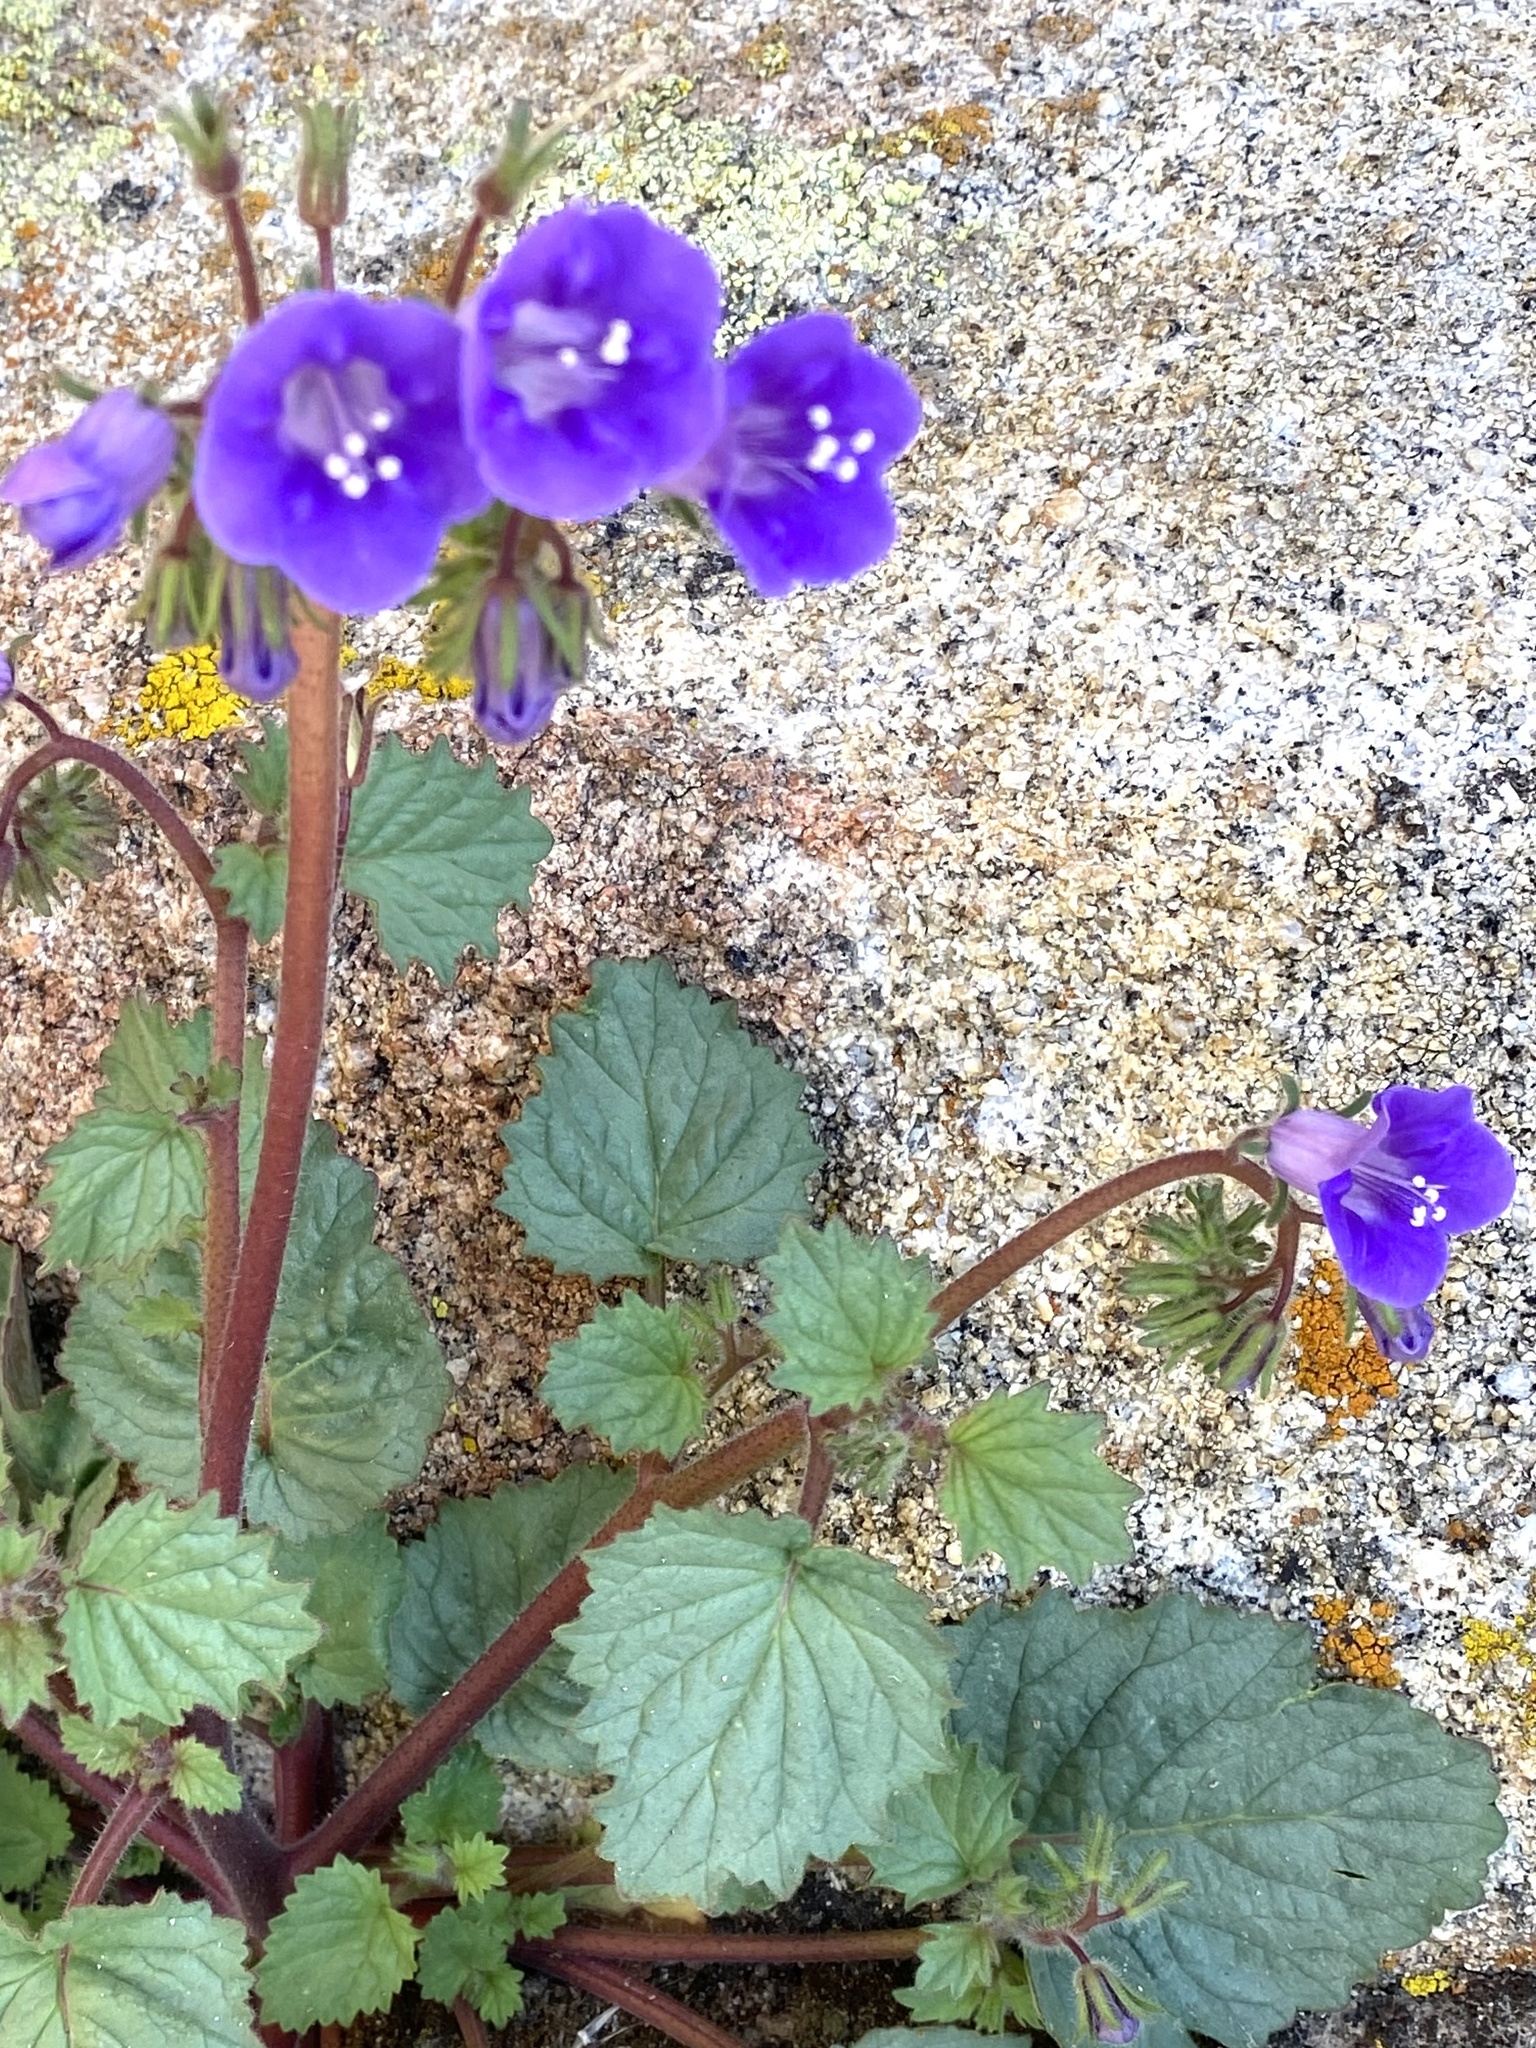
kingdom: Plantae
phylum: Tracheophyta
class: Magnoliopsida
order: Boraginales
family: Hydrophyllaceae
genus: Phacelia
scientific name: Phacelia minor
